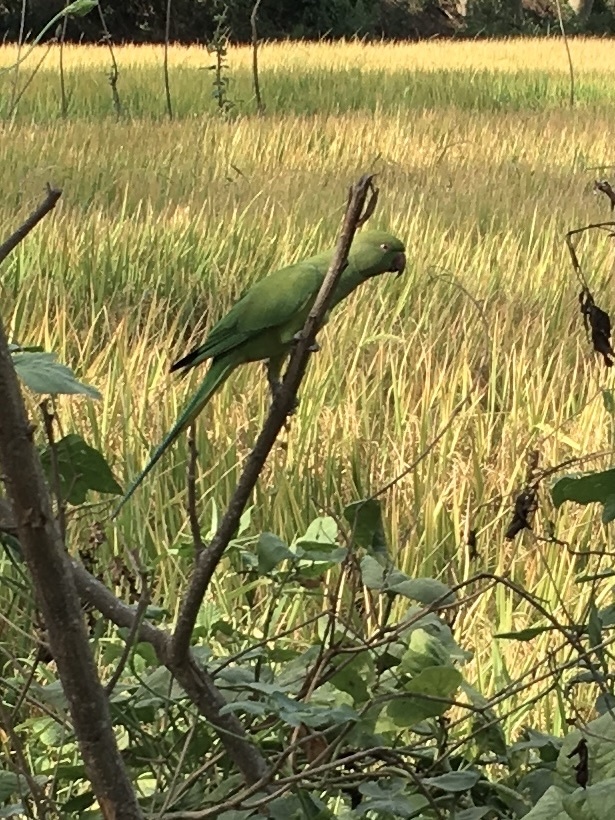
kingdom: Animalia
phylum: Chordata
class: Aves
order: Psittaciformes
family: Psittacidae
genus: Psittacula
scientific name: Psittacula krameri
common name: Rose-ringed parakeet
